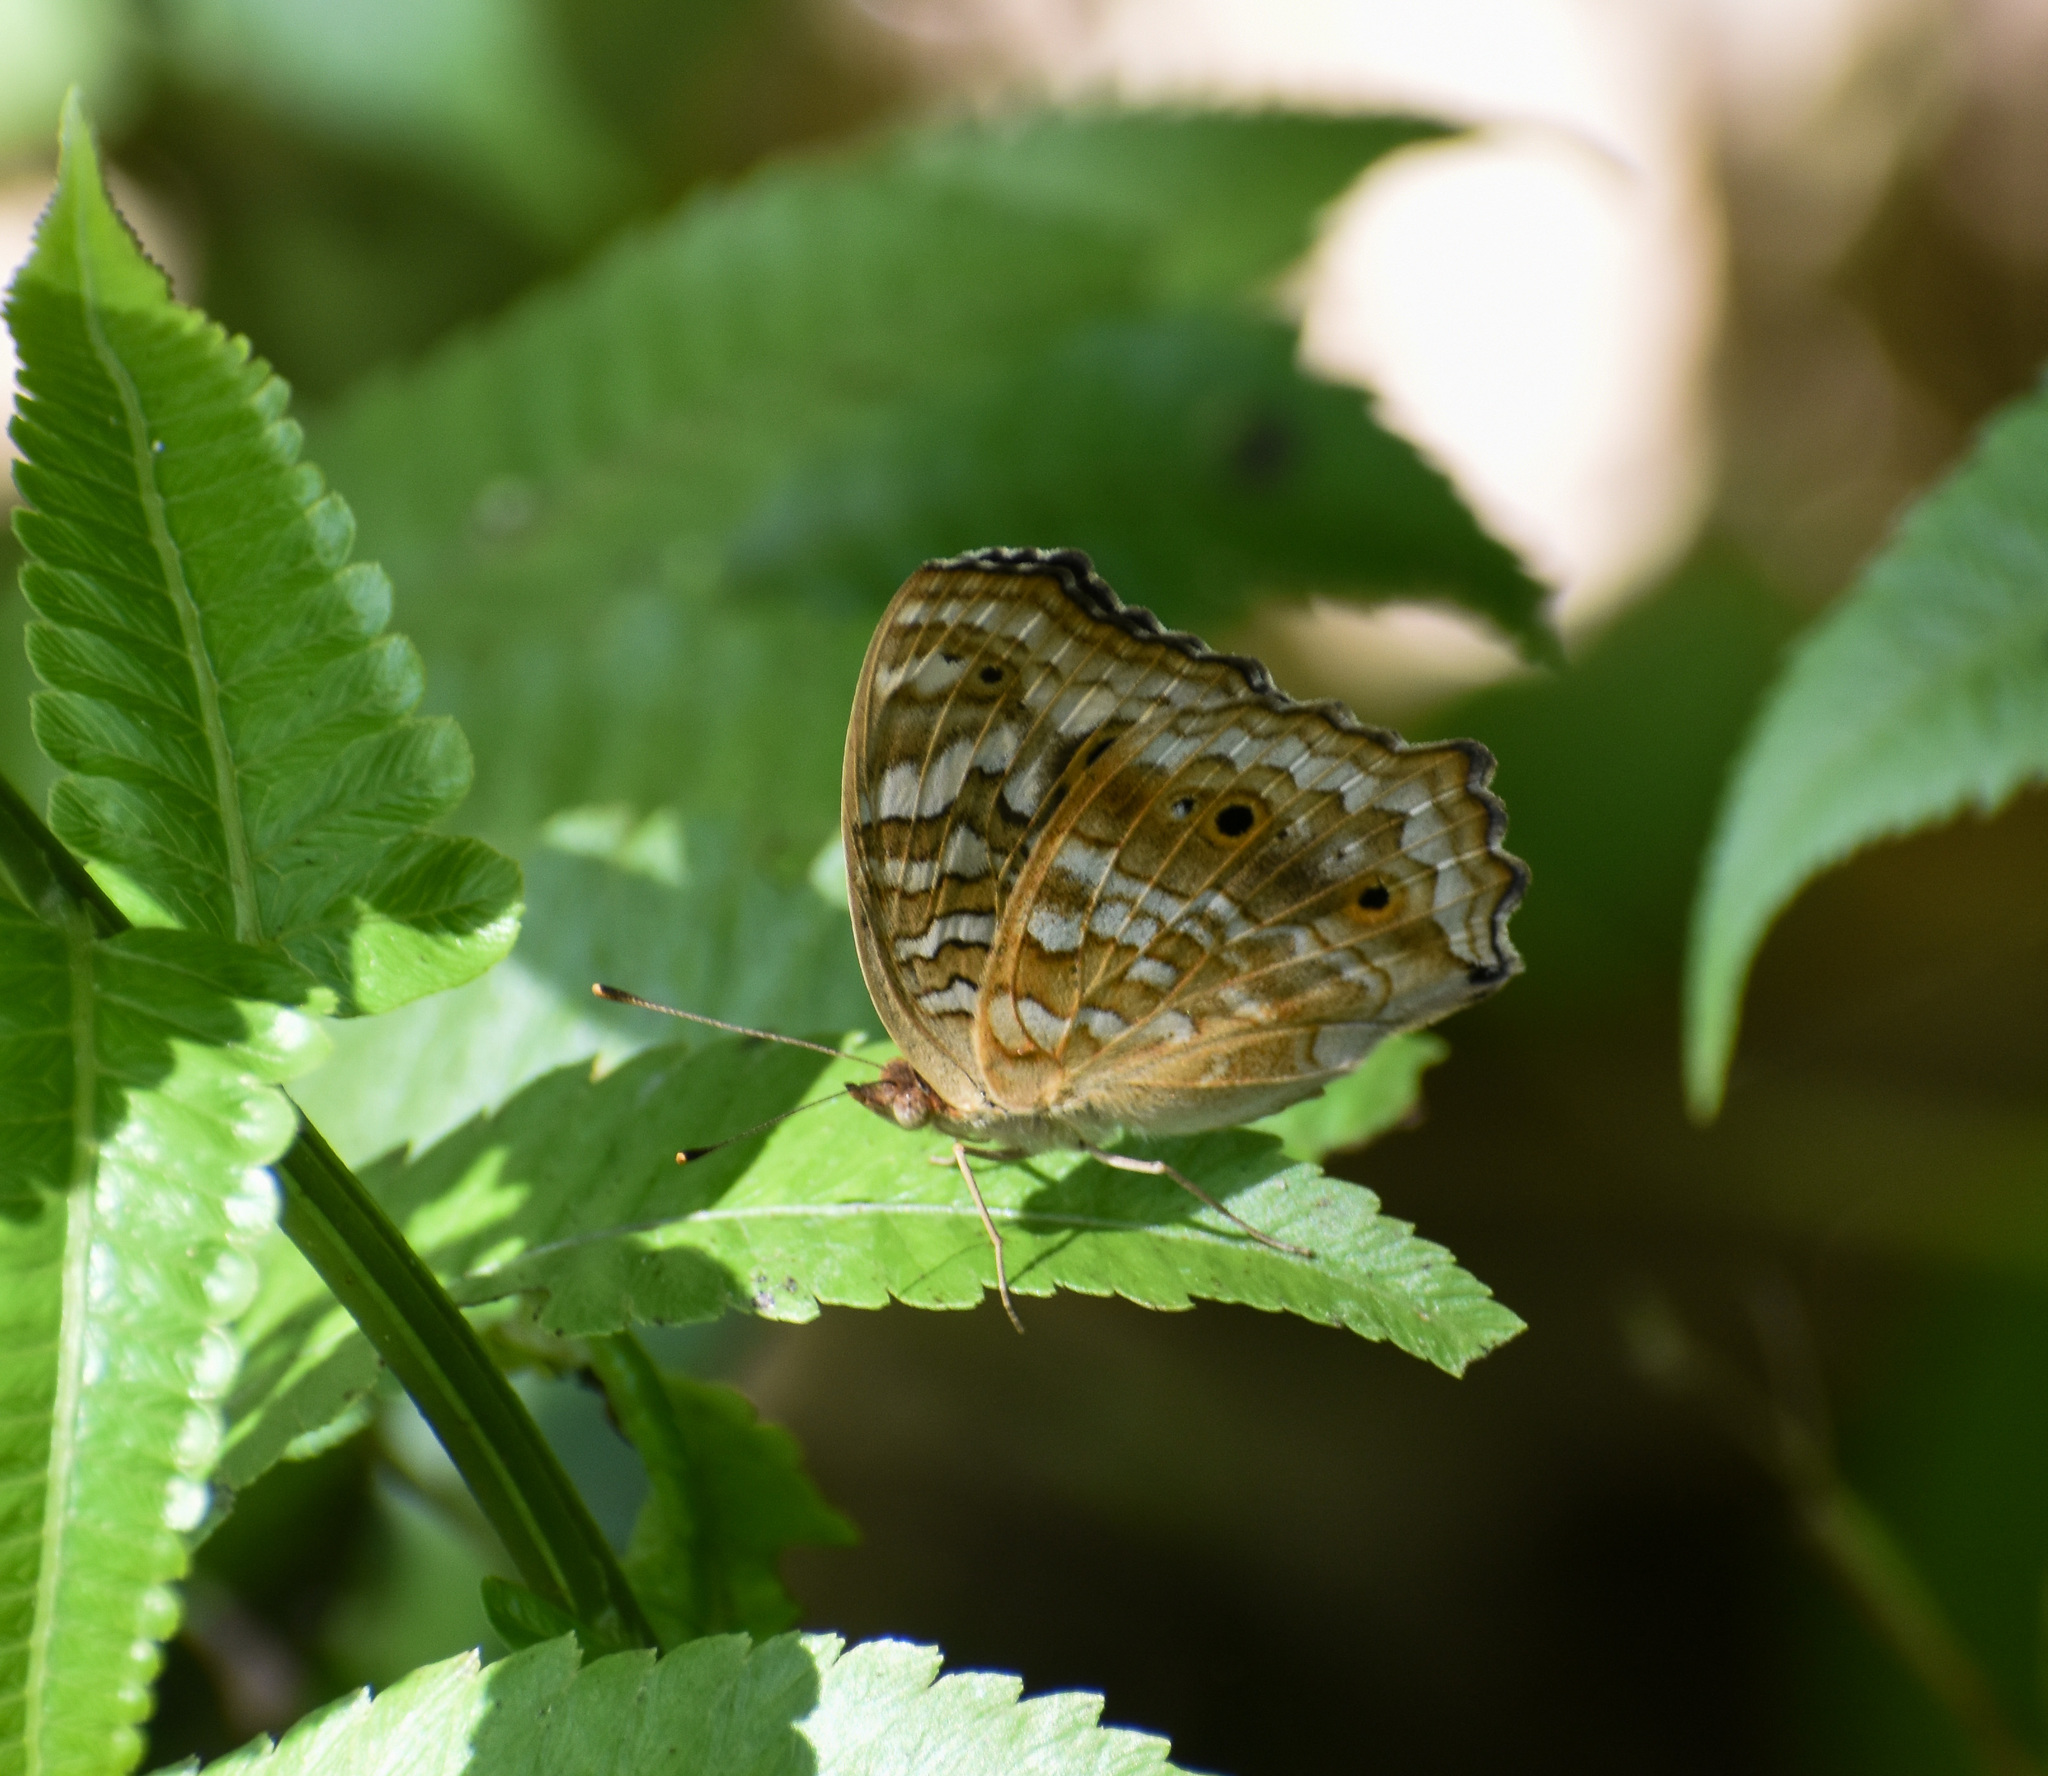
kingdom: Animalia
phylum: Arthropoda
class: Insecta
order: Lepidoptera
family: Nymphalidae
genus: Junonia
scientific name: Junonia lemonias
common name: Lemon pansy
